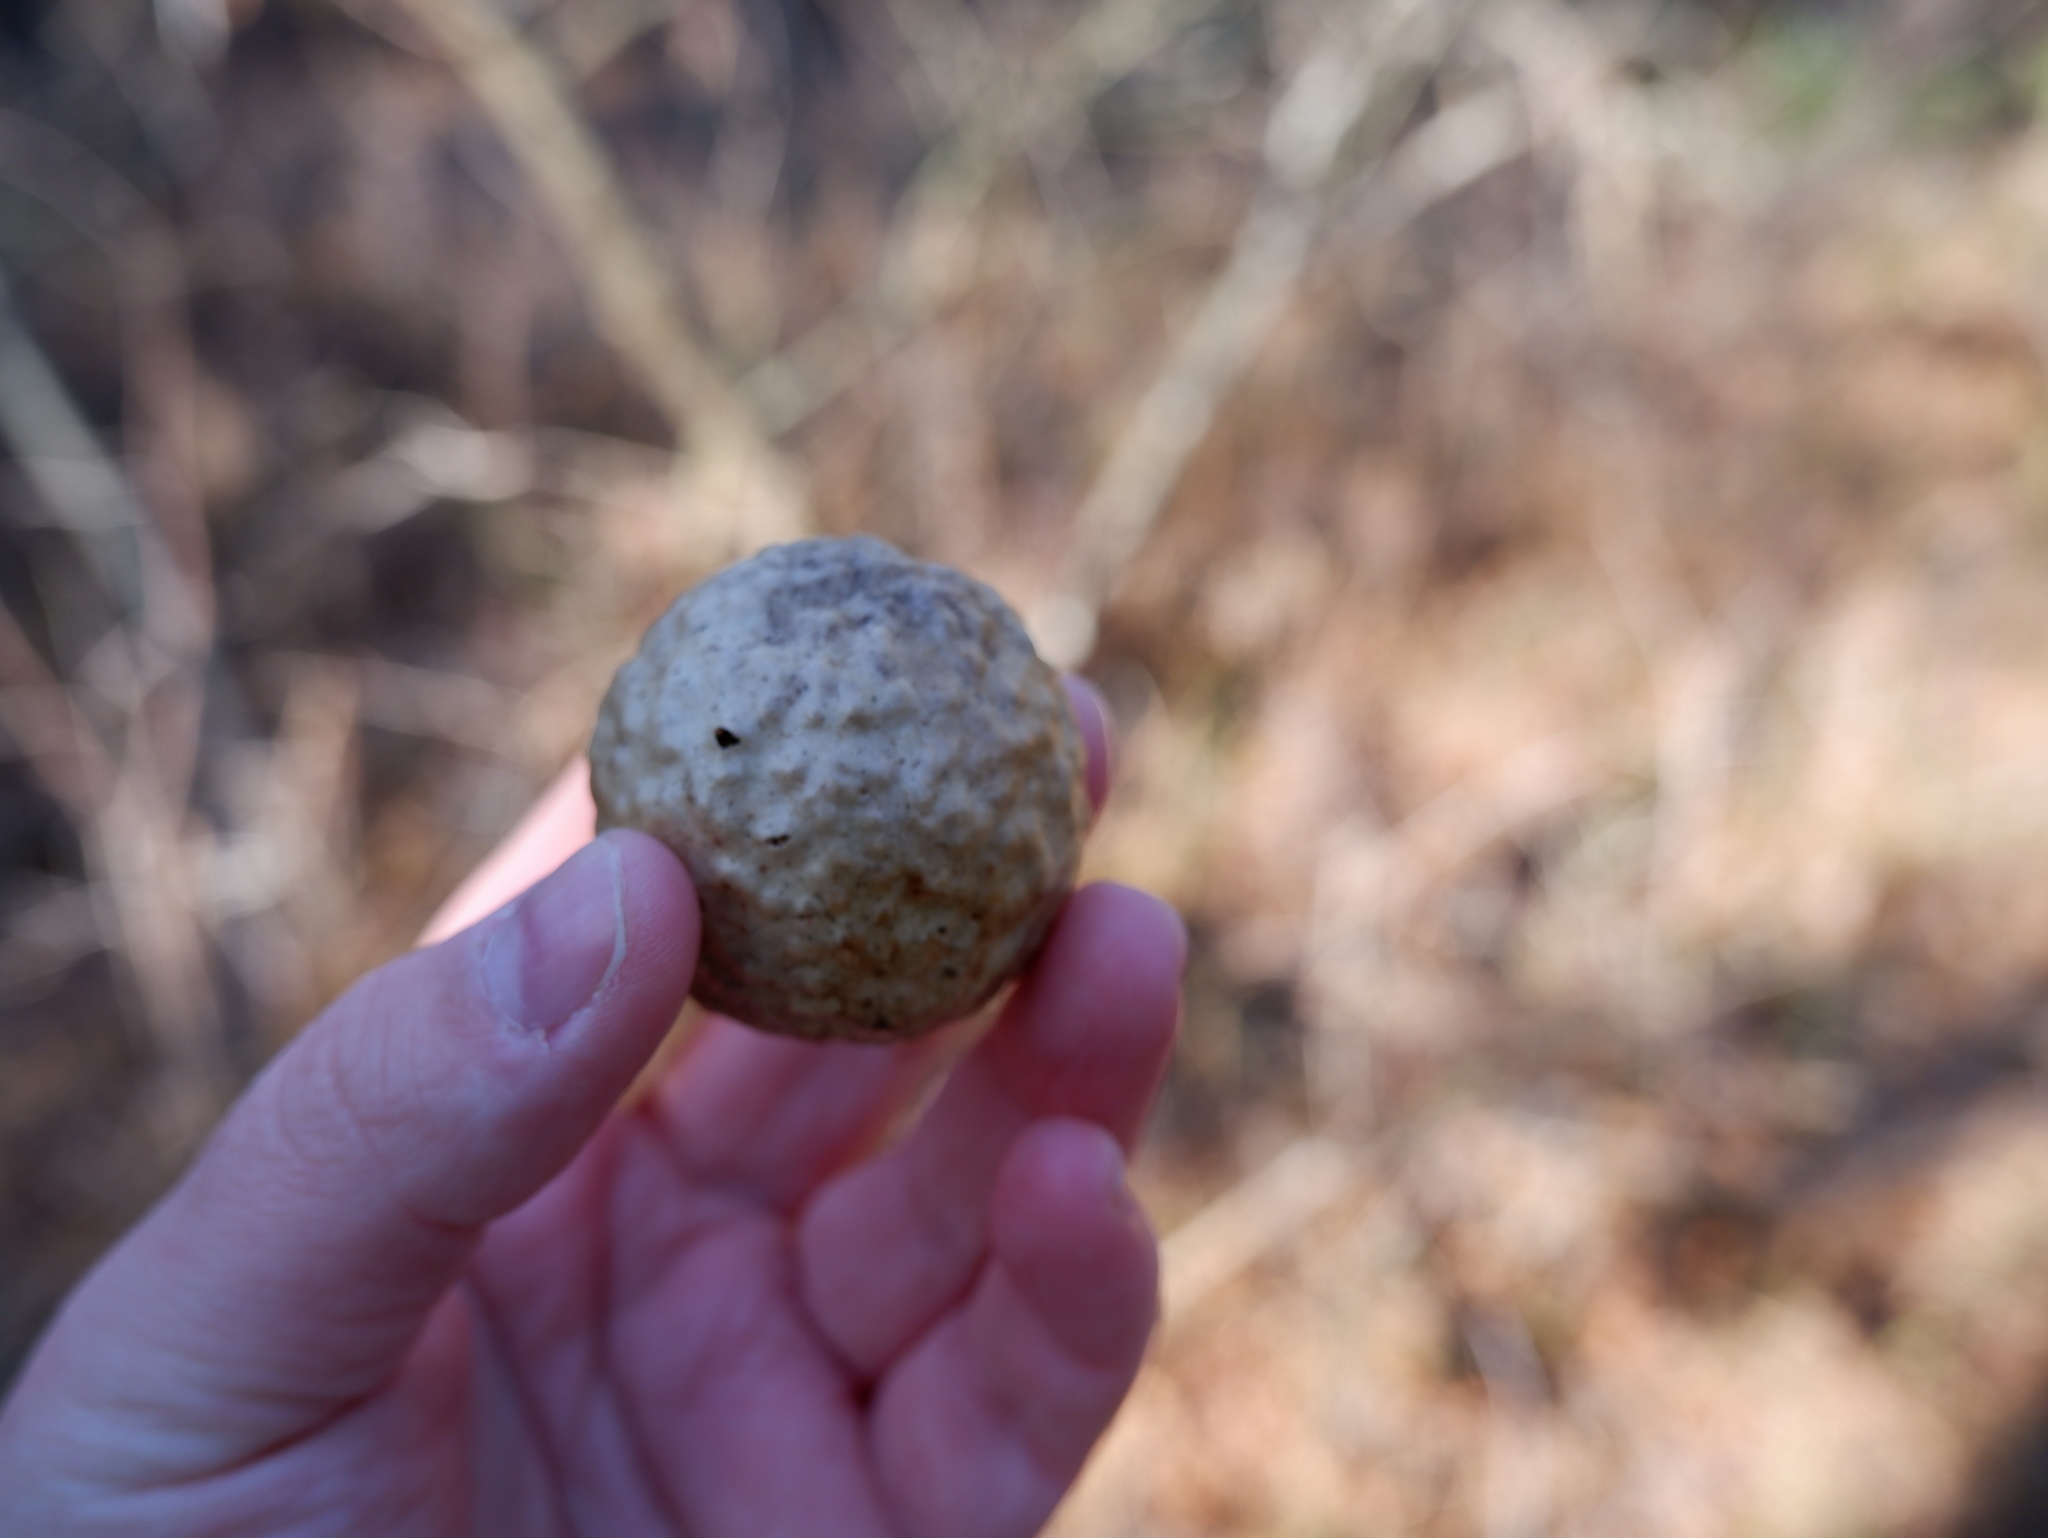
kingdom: Animalia
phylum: Arthropoda
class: Insecta
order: Hymenoptera
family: Cynipidae
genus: Amphibolips
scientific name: Amphibolips
